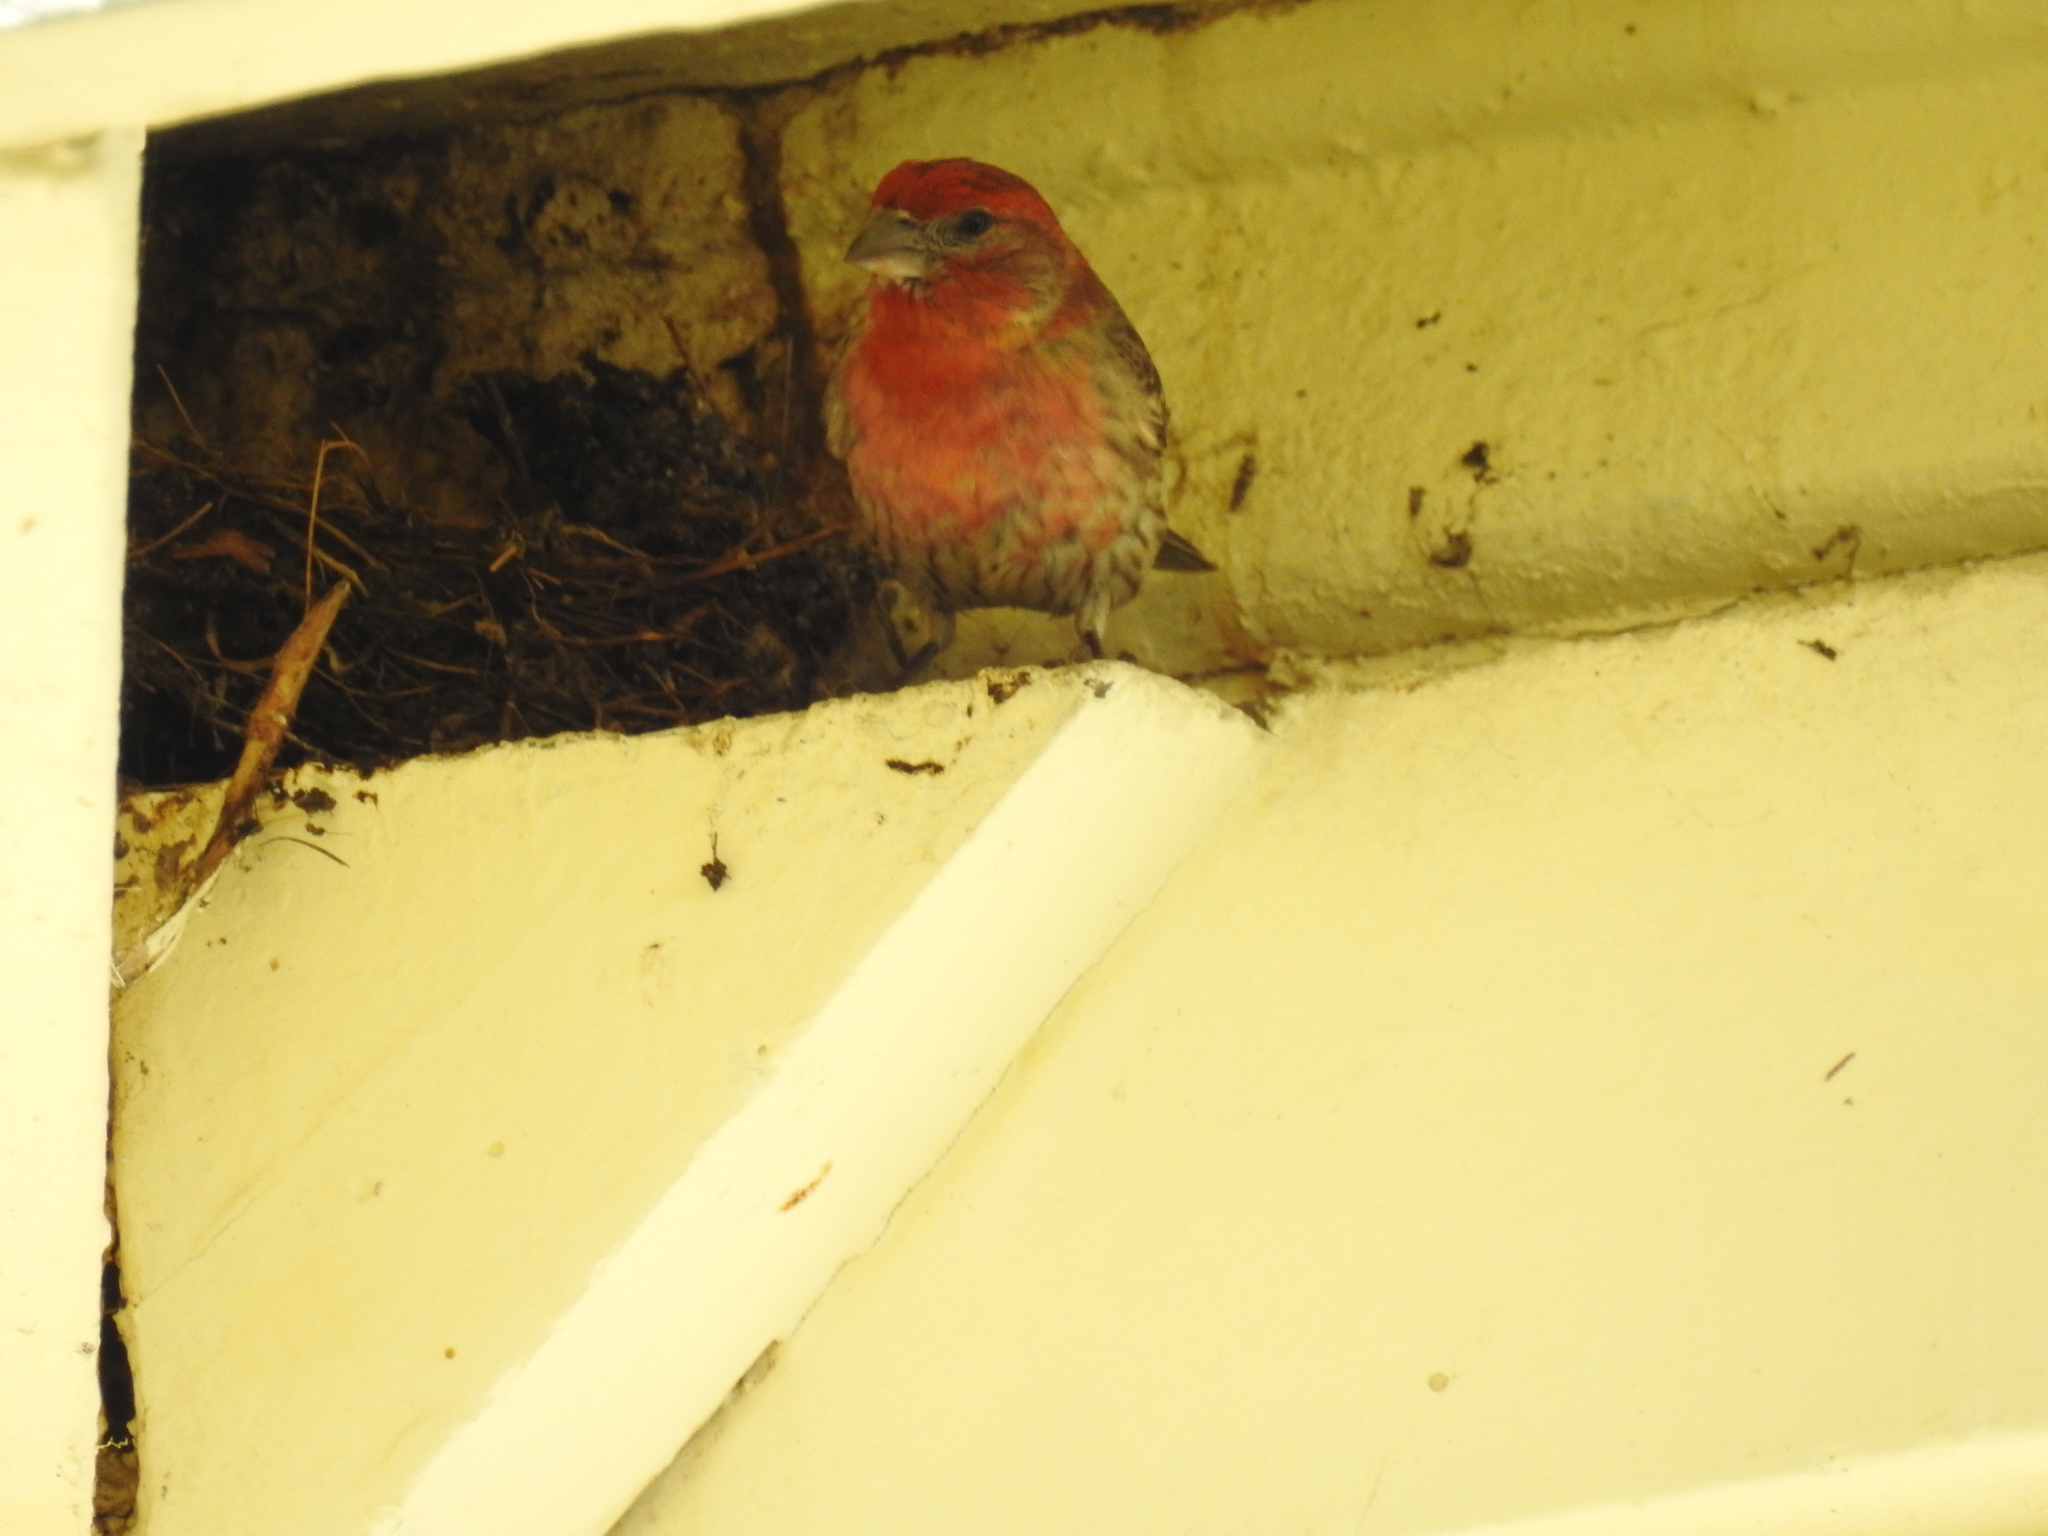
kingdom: Animalia
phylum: Chordata
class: Aves
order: Passeriformes
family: Fringillidae
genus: Haemorhous
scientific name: Haemorhous mexicanus
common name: House finch
